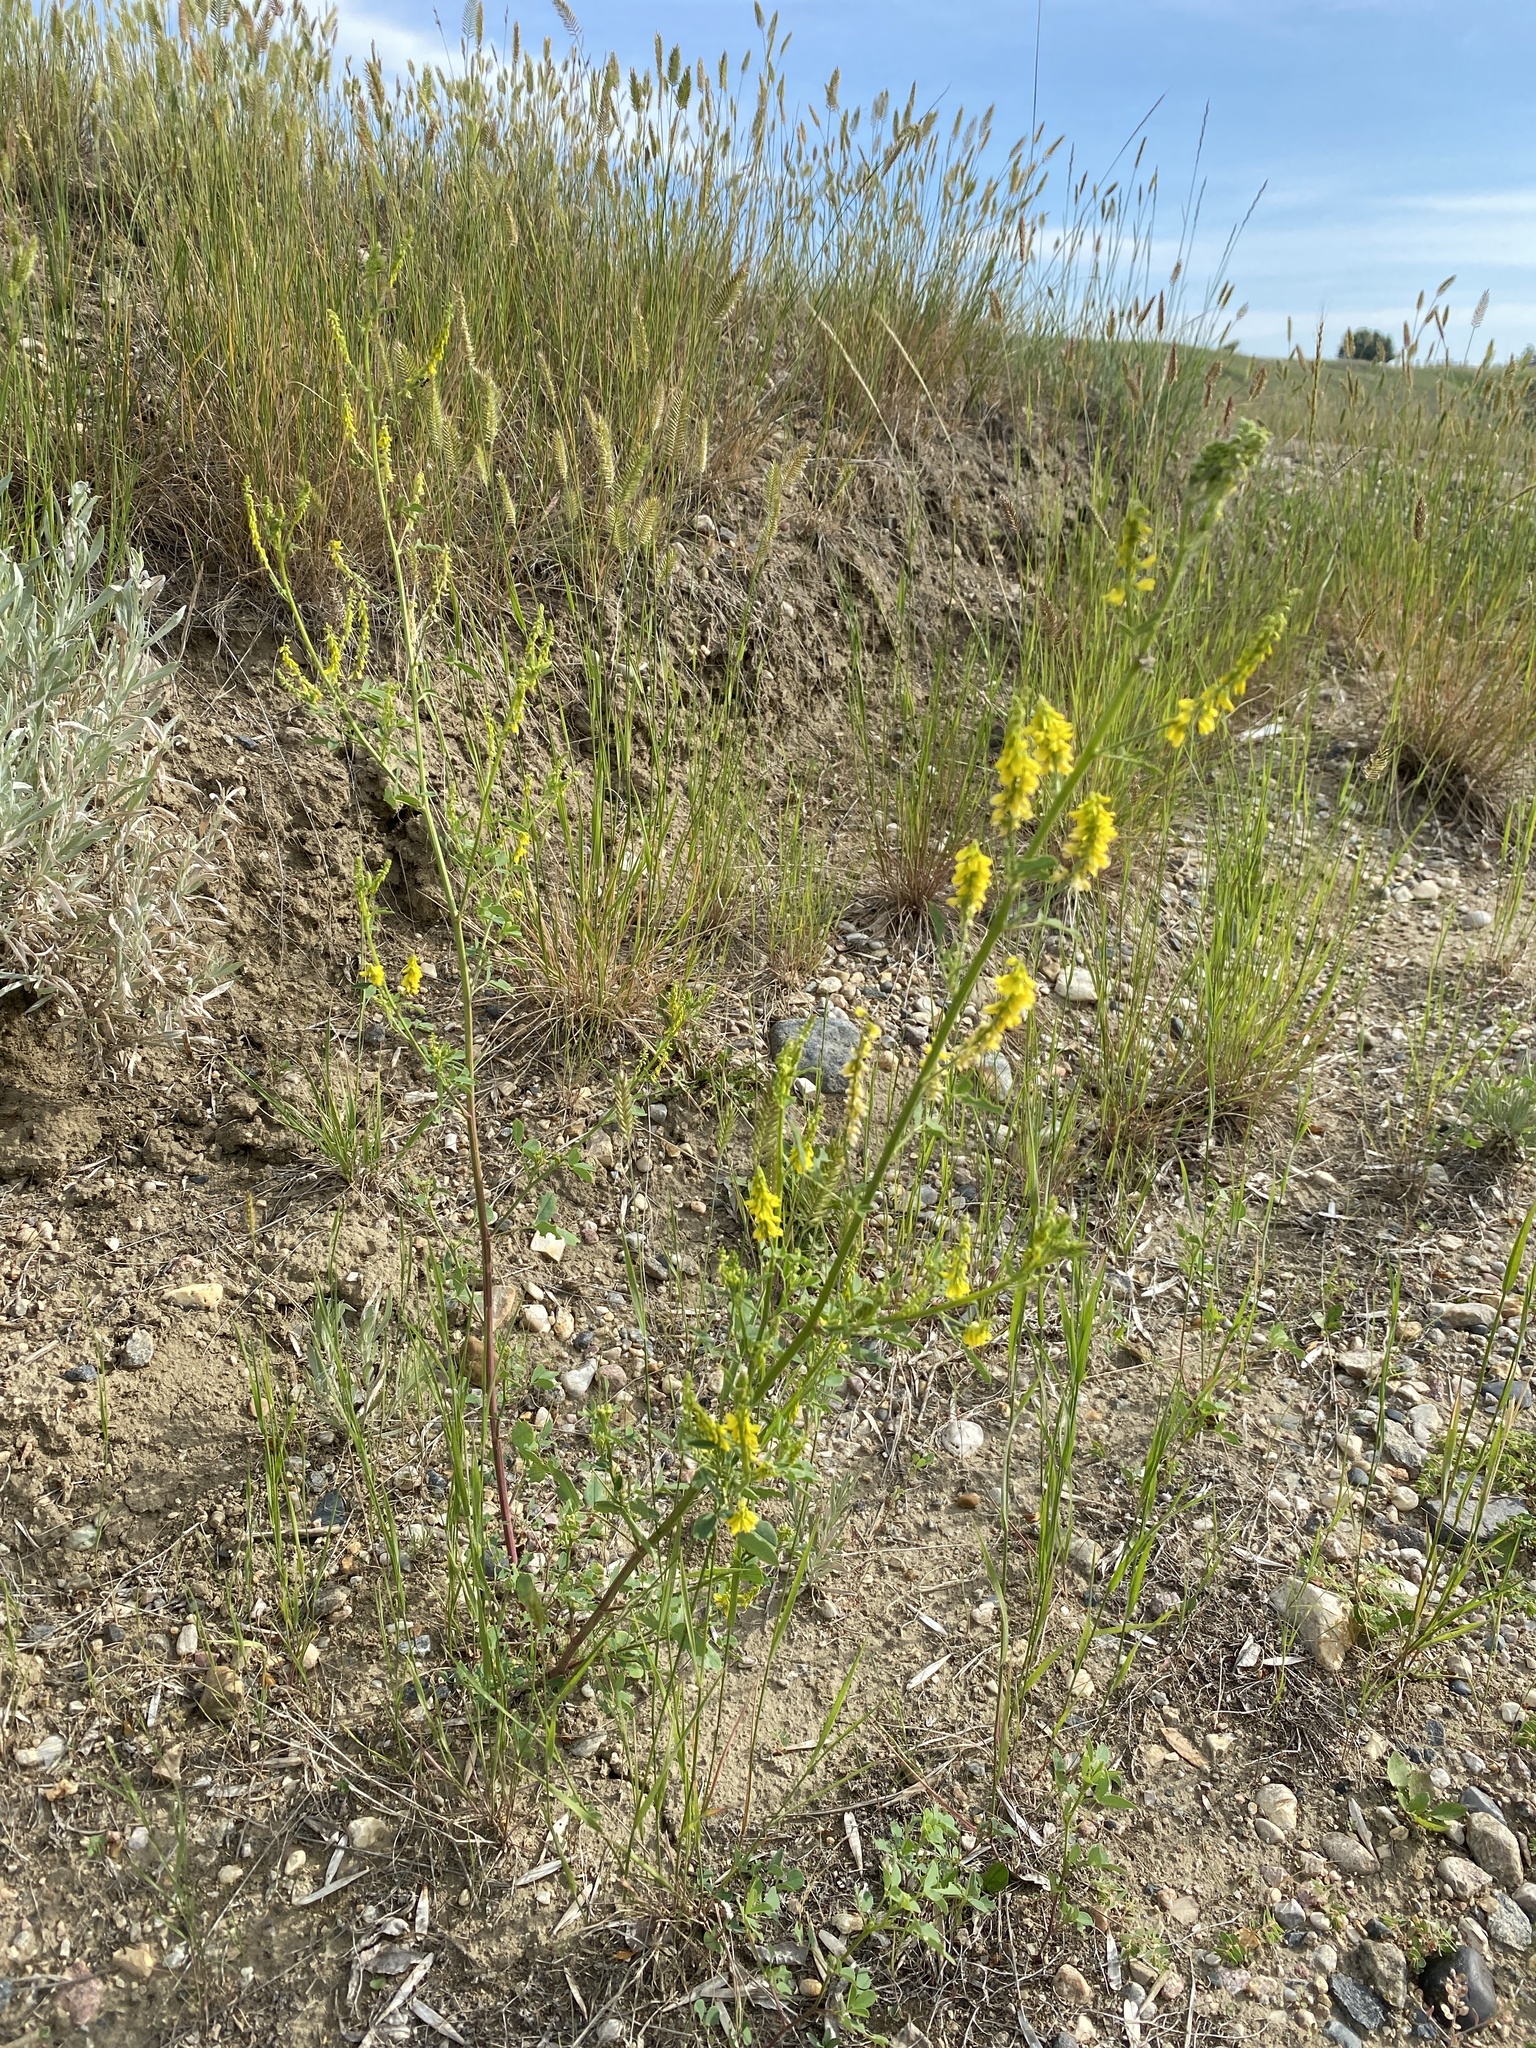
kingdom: Plantae
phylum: Tracheophyta
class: Magnoliopsida
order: Fabales
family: Fabaceae
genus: Melilotus
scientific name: Melilotus officinalis
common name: Sweetclover
